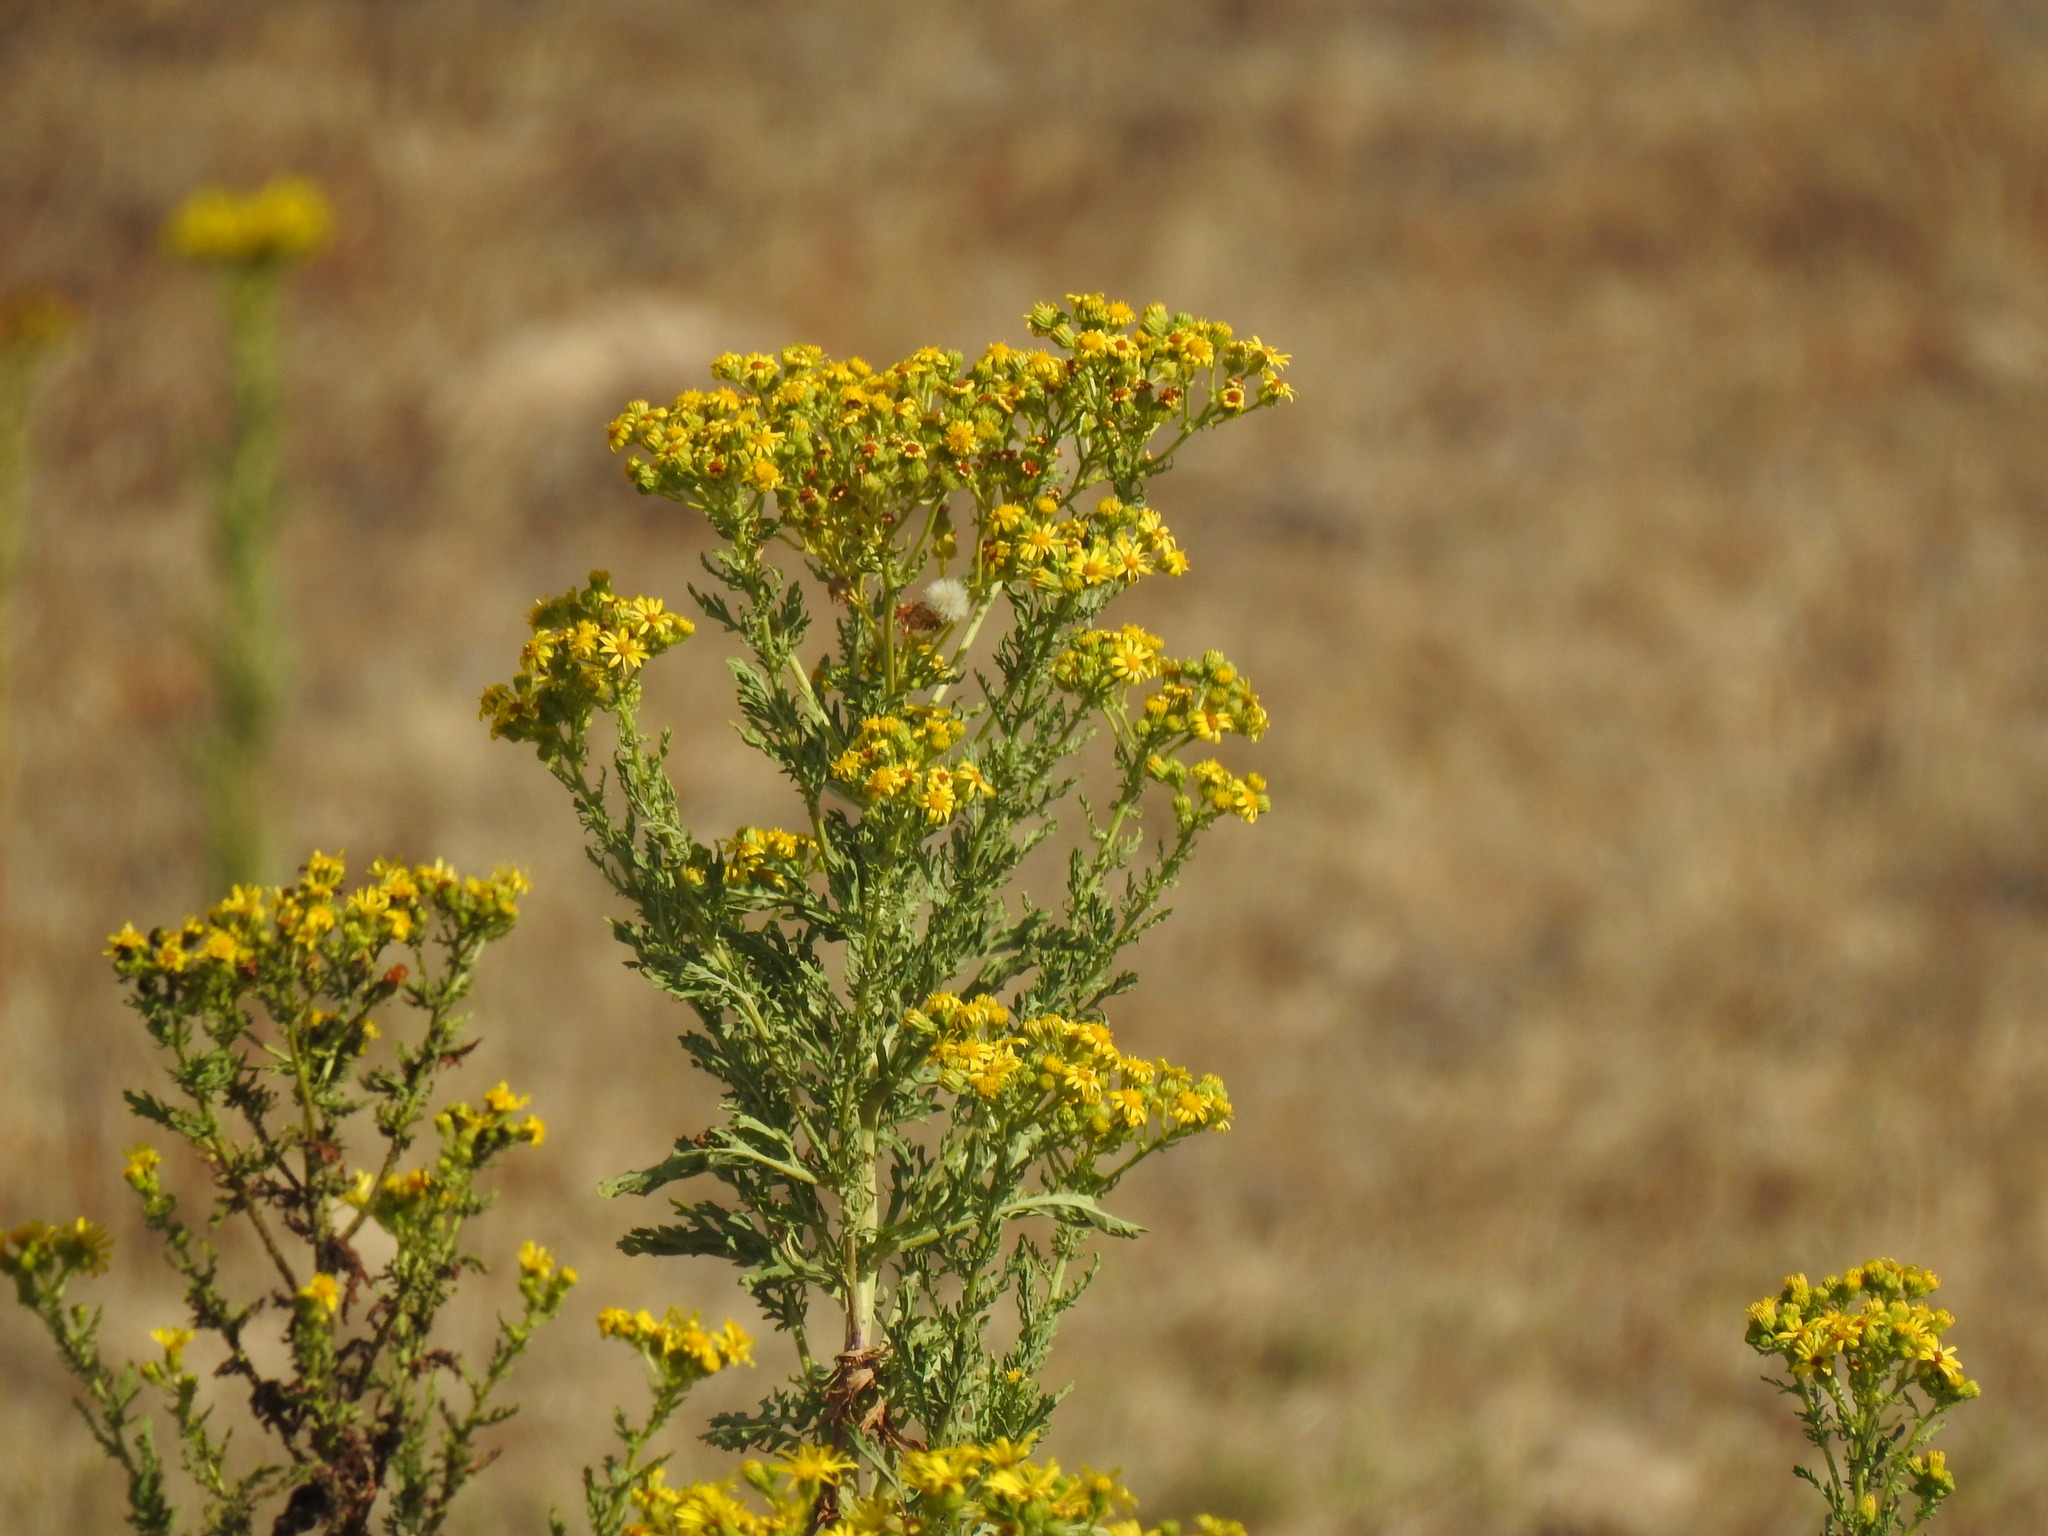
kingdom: Plantae
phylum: Tracheophyta
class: Magnoliopsida
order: Asterales
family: Asteraceae
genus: Jacobaea
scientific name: Jacobaea vulgaris
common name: Stinking willie
